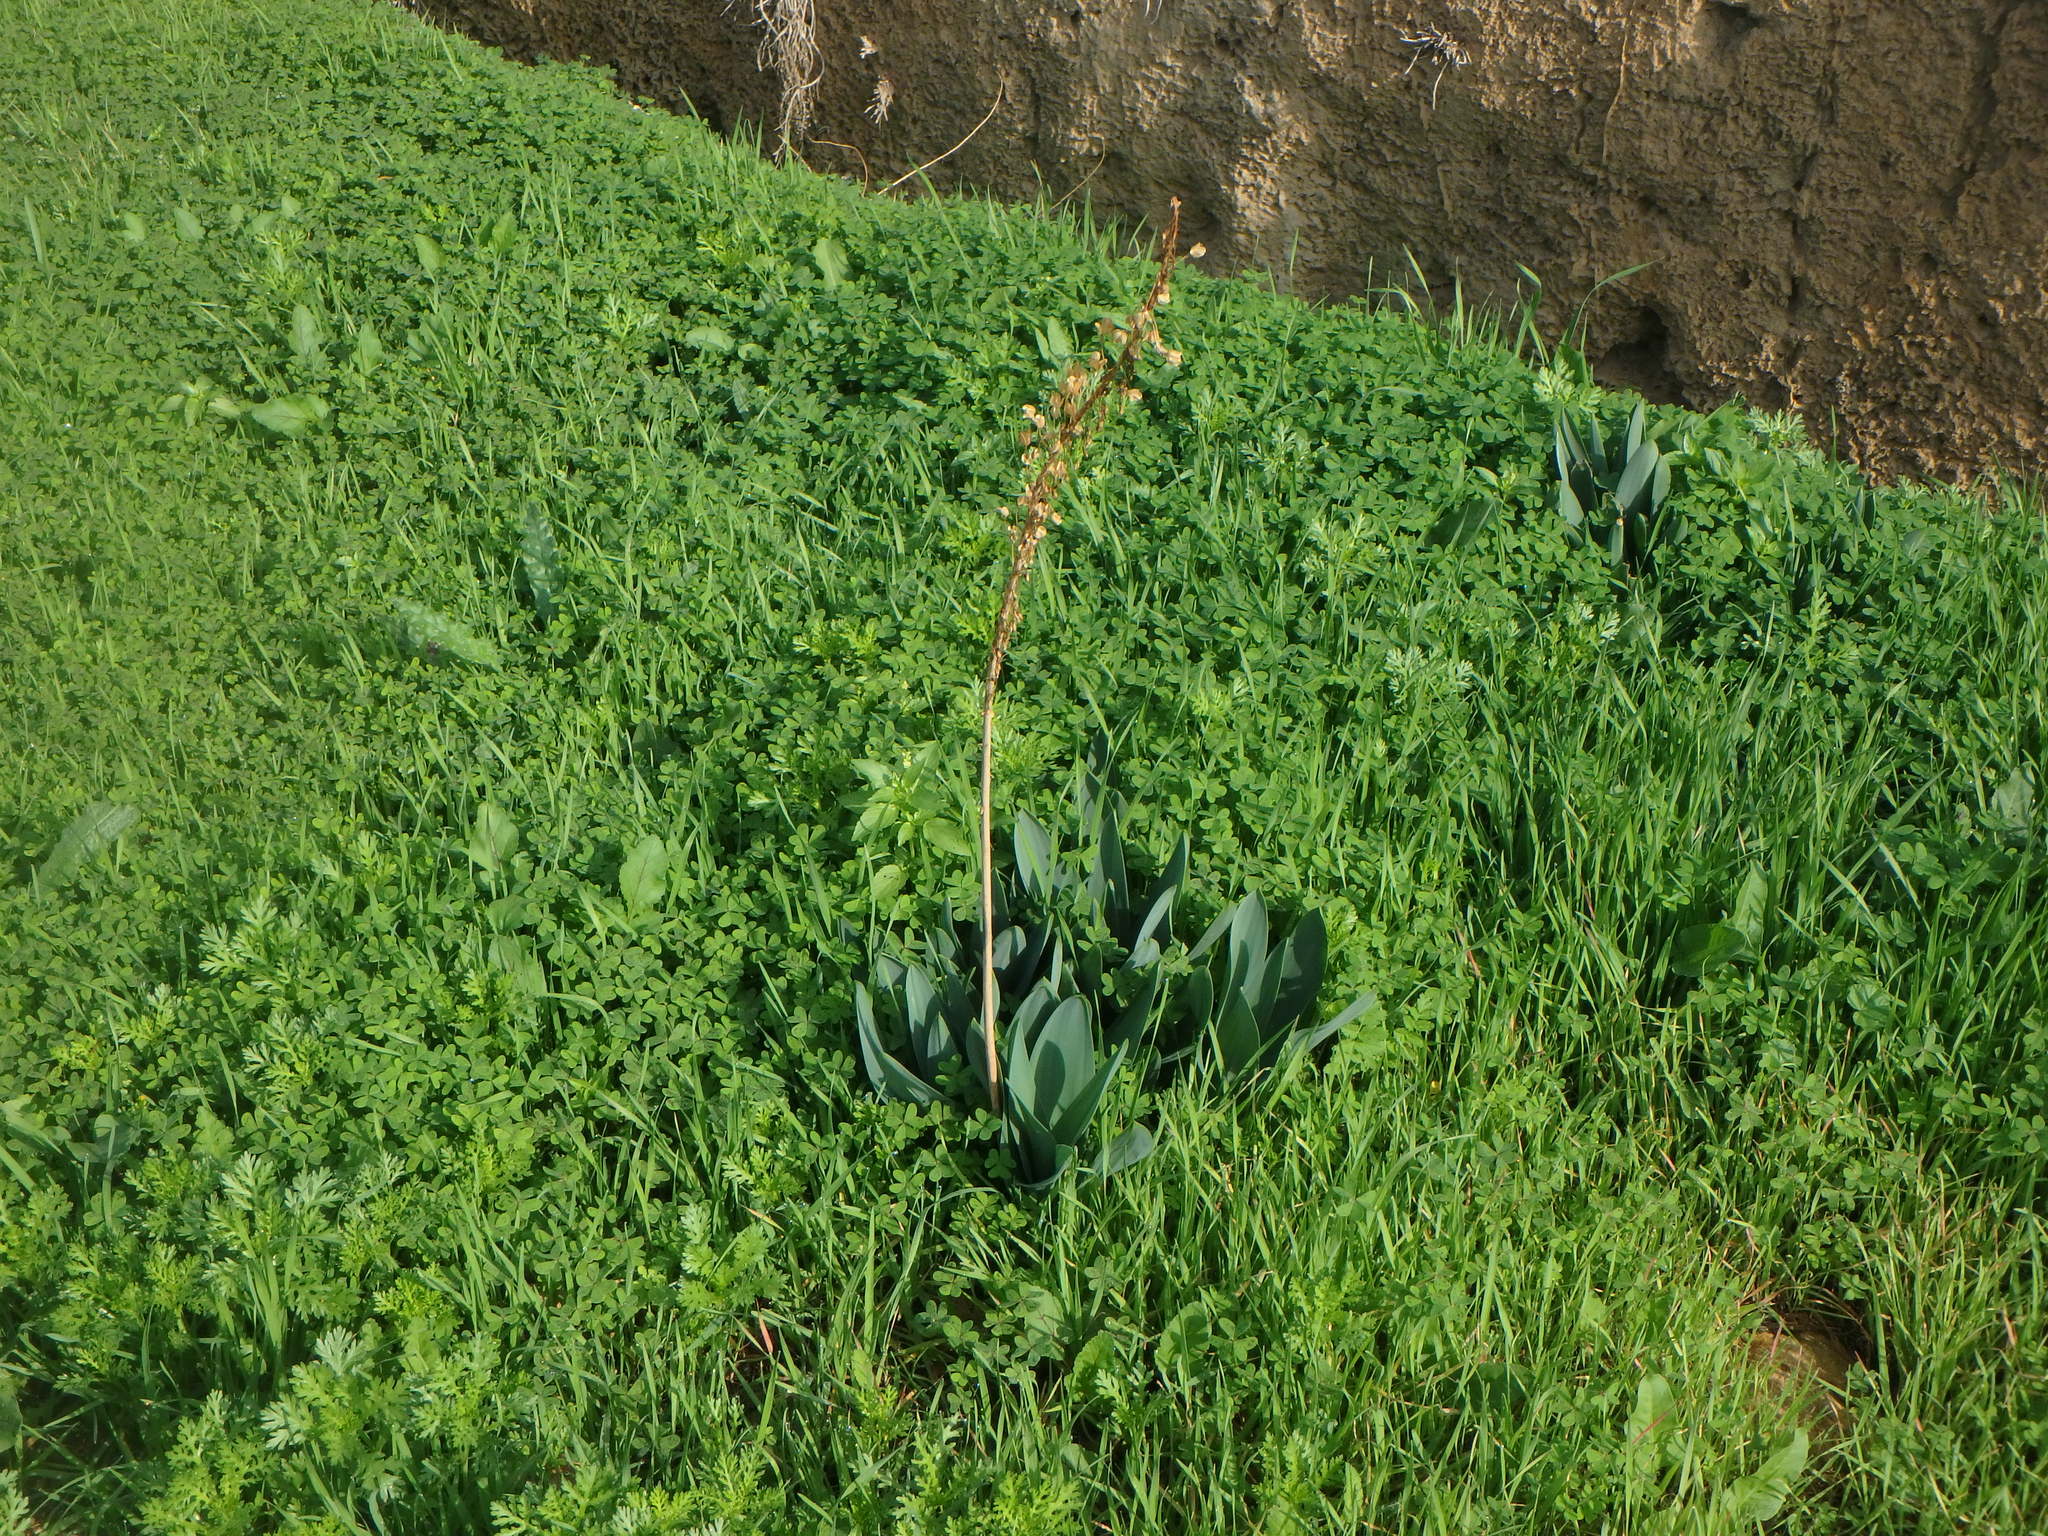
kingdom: Plantae
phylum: Tracheophyta
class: Liliopsida
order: Asparagales
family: Asparagaceae
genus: Drimia
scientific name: Drimia aphylla
